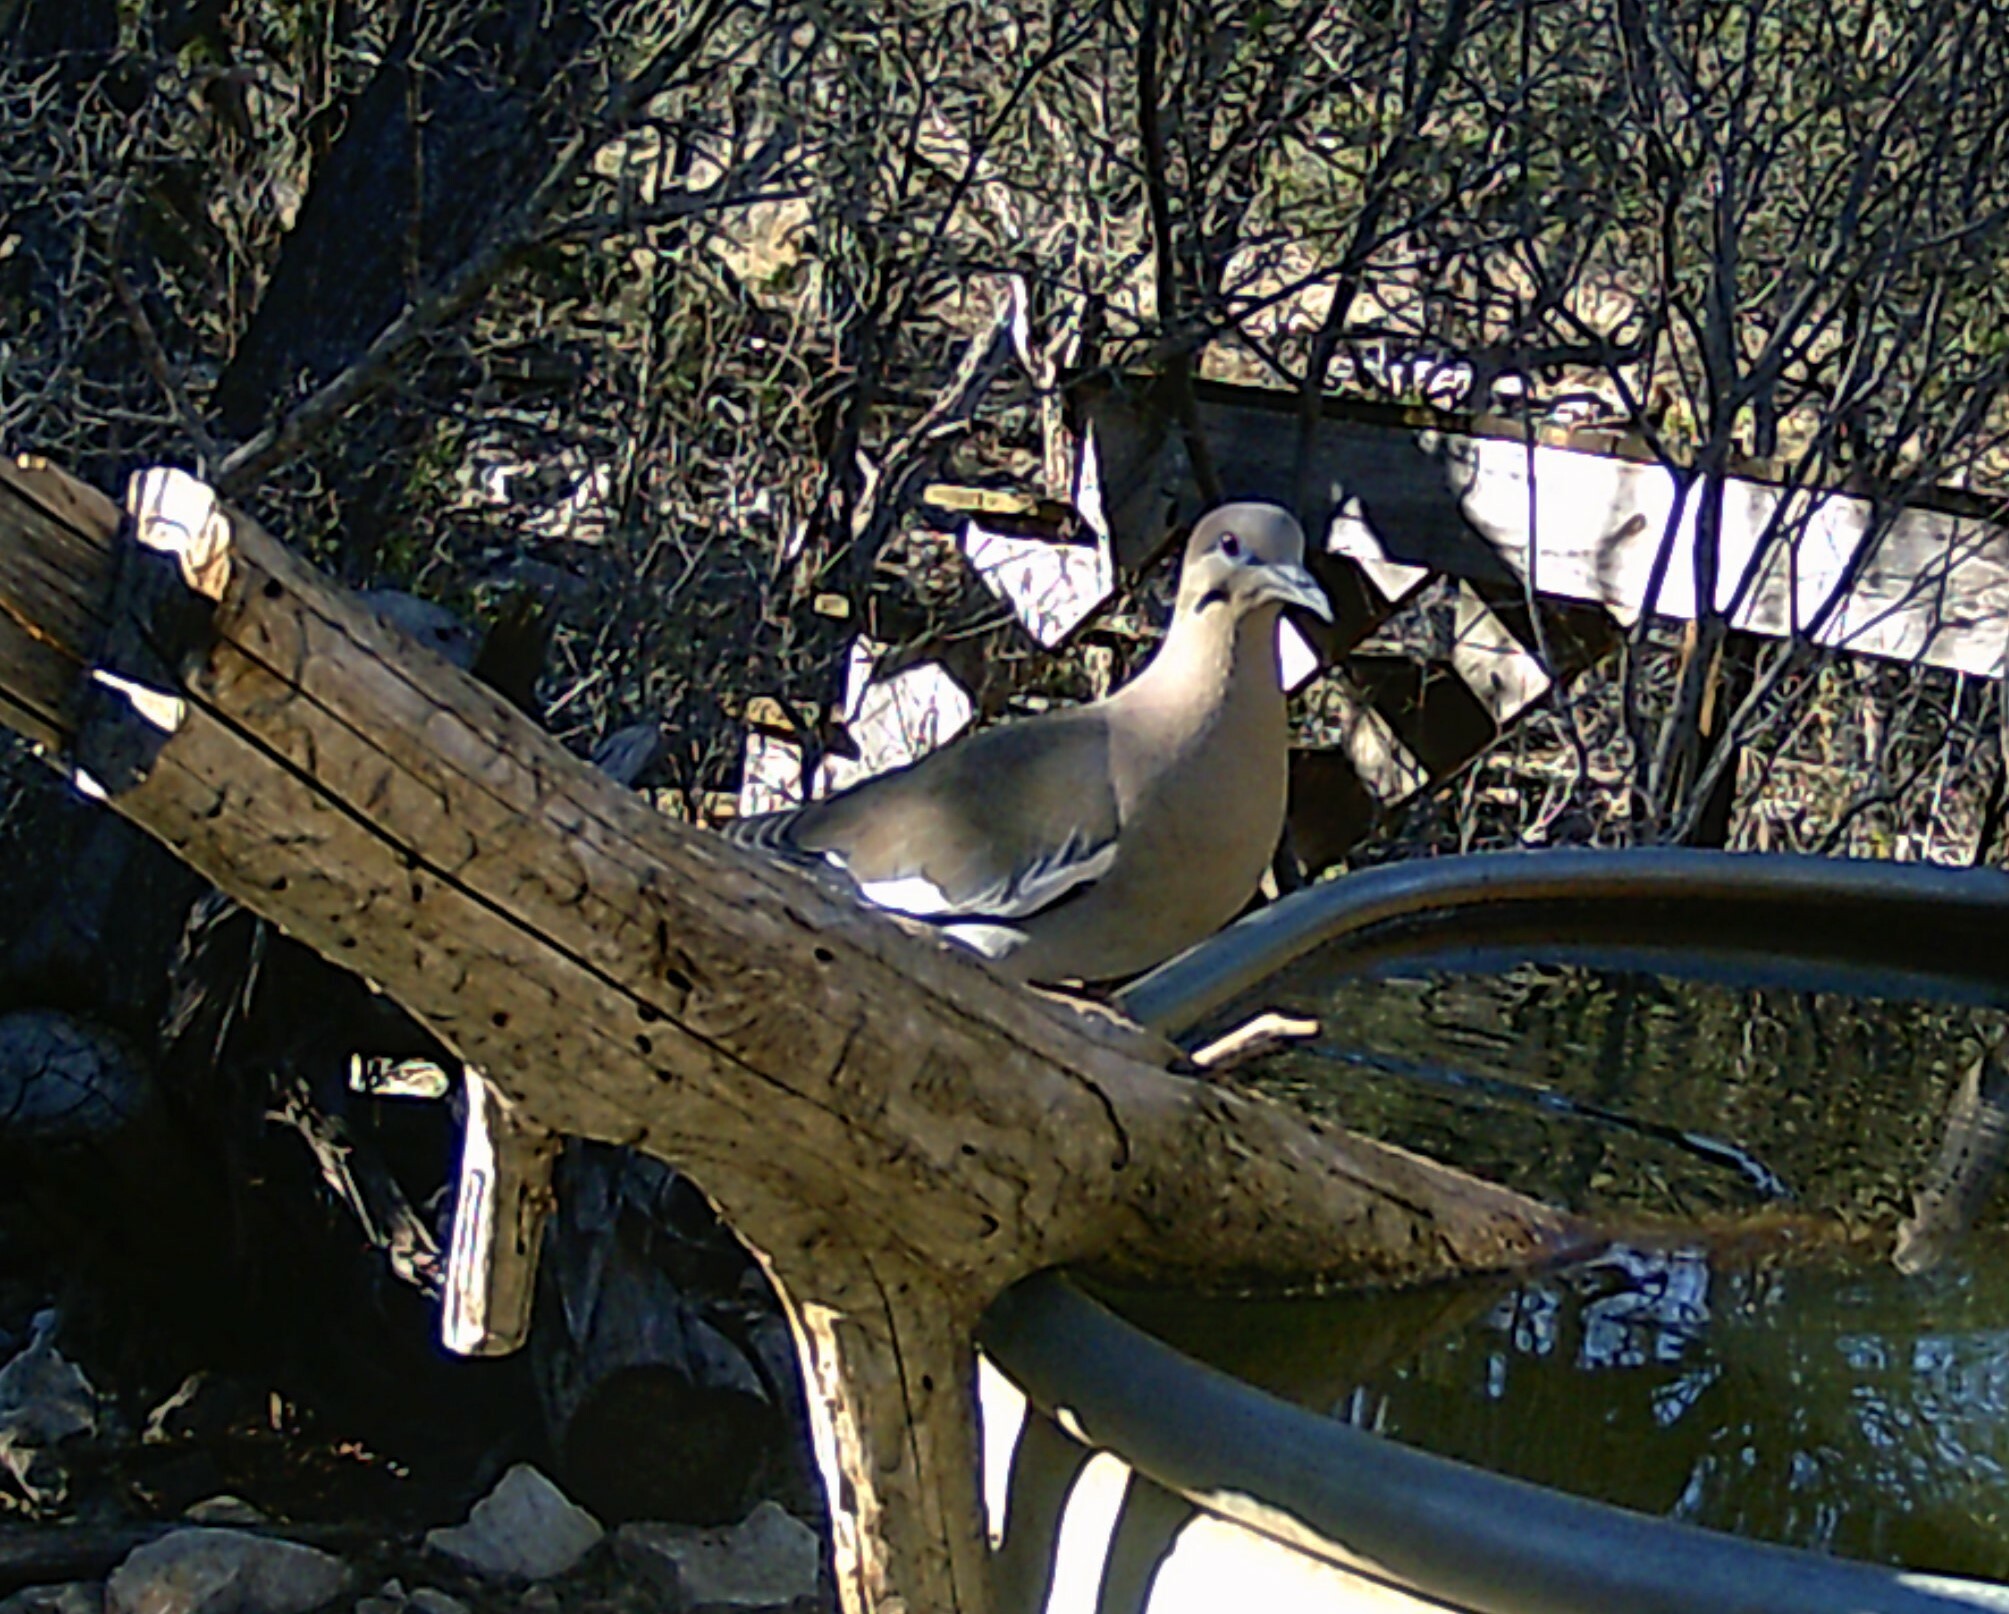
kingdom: Animalia
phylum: Chordata
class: Aves
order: Columbiformes
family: Columbidae
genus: Zenaida
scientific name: Zenaida asiatica
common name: White-winged dove
